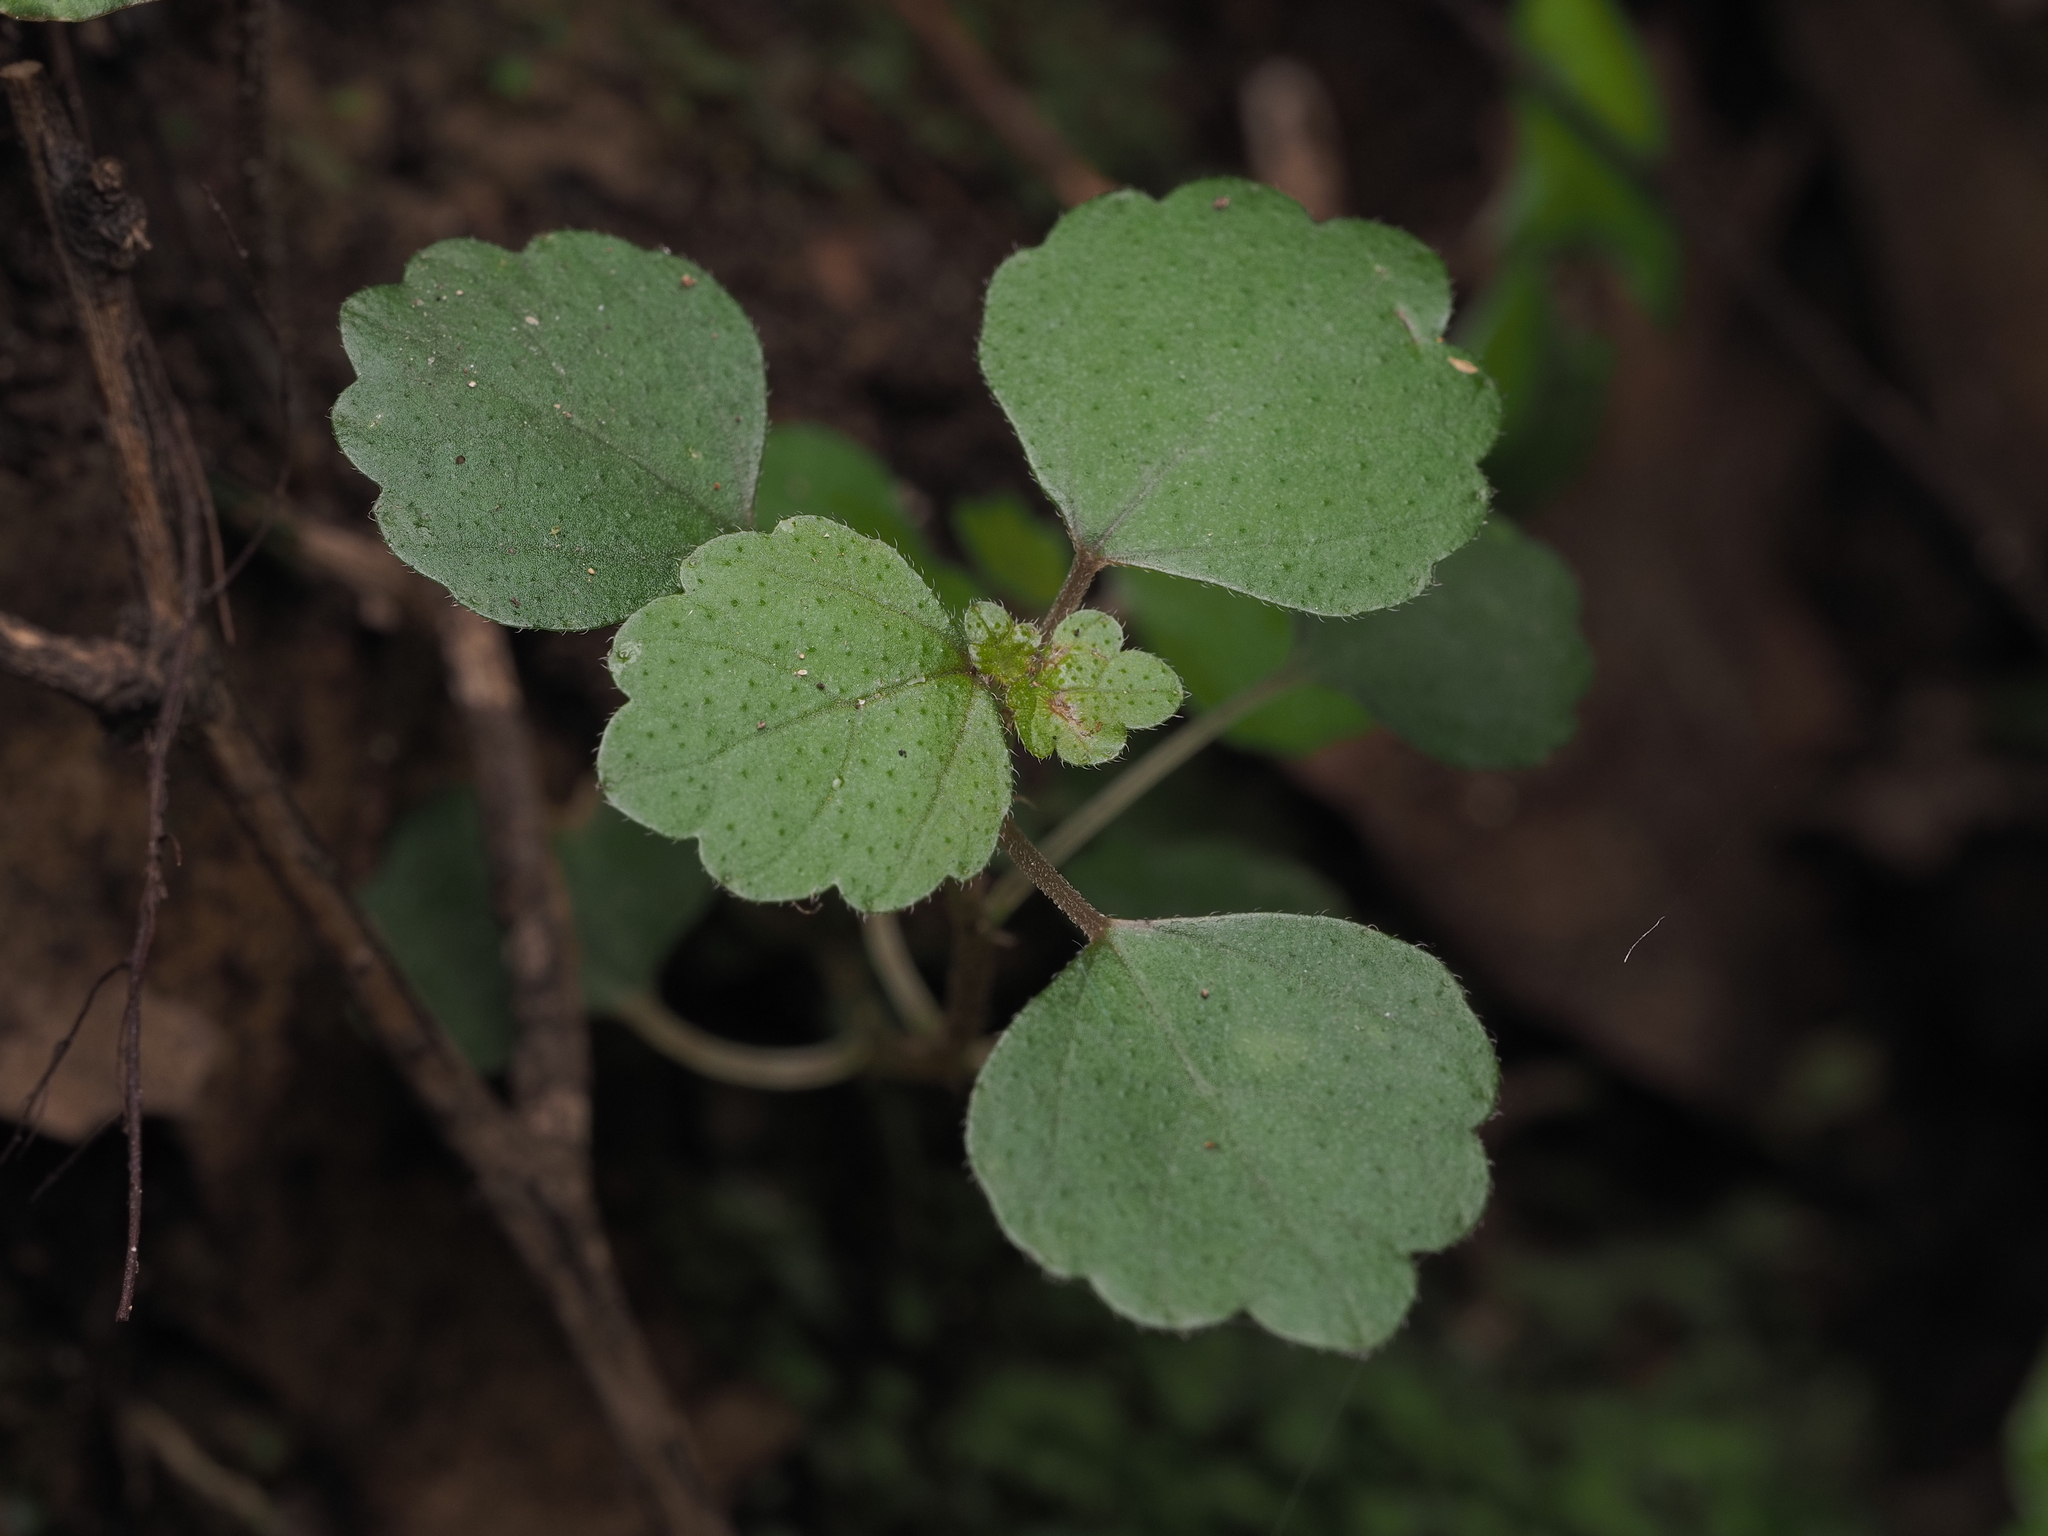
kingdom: Plantae
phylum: Tracheophyta
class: Magnoliopsida
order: Rosales
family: Urticaceae
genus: Australina
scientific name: Australina pusilla
